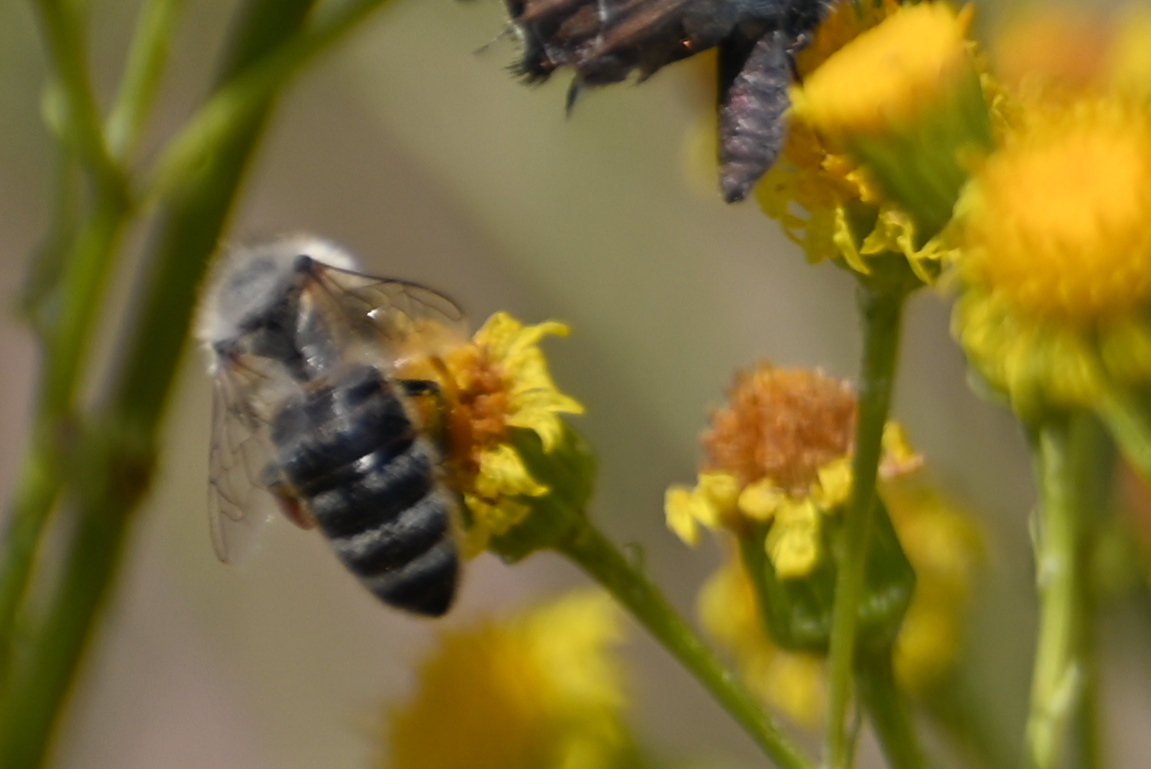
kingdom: Animalia
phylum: Arthropoda
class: Insecta
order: Hymenoptera
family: Apidae
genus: Apis
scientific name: Apis mellifera
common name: Honey bee
